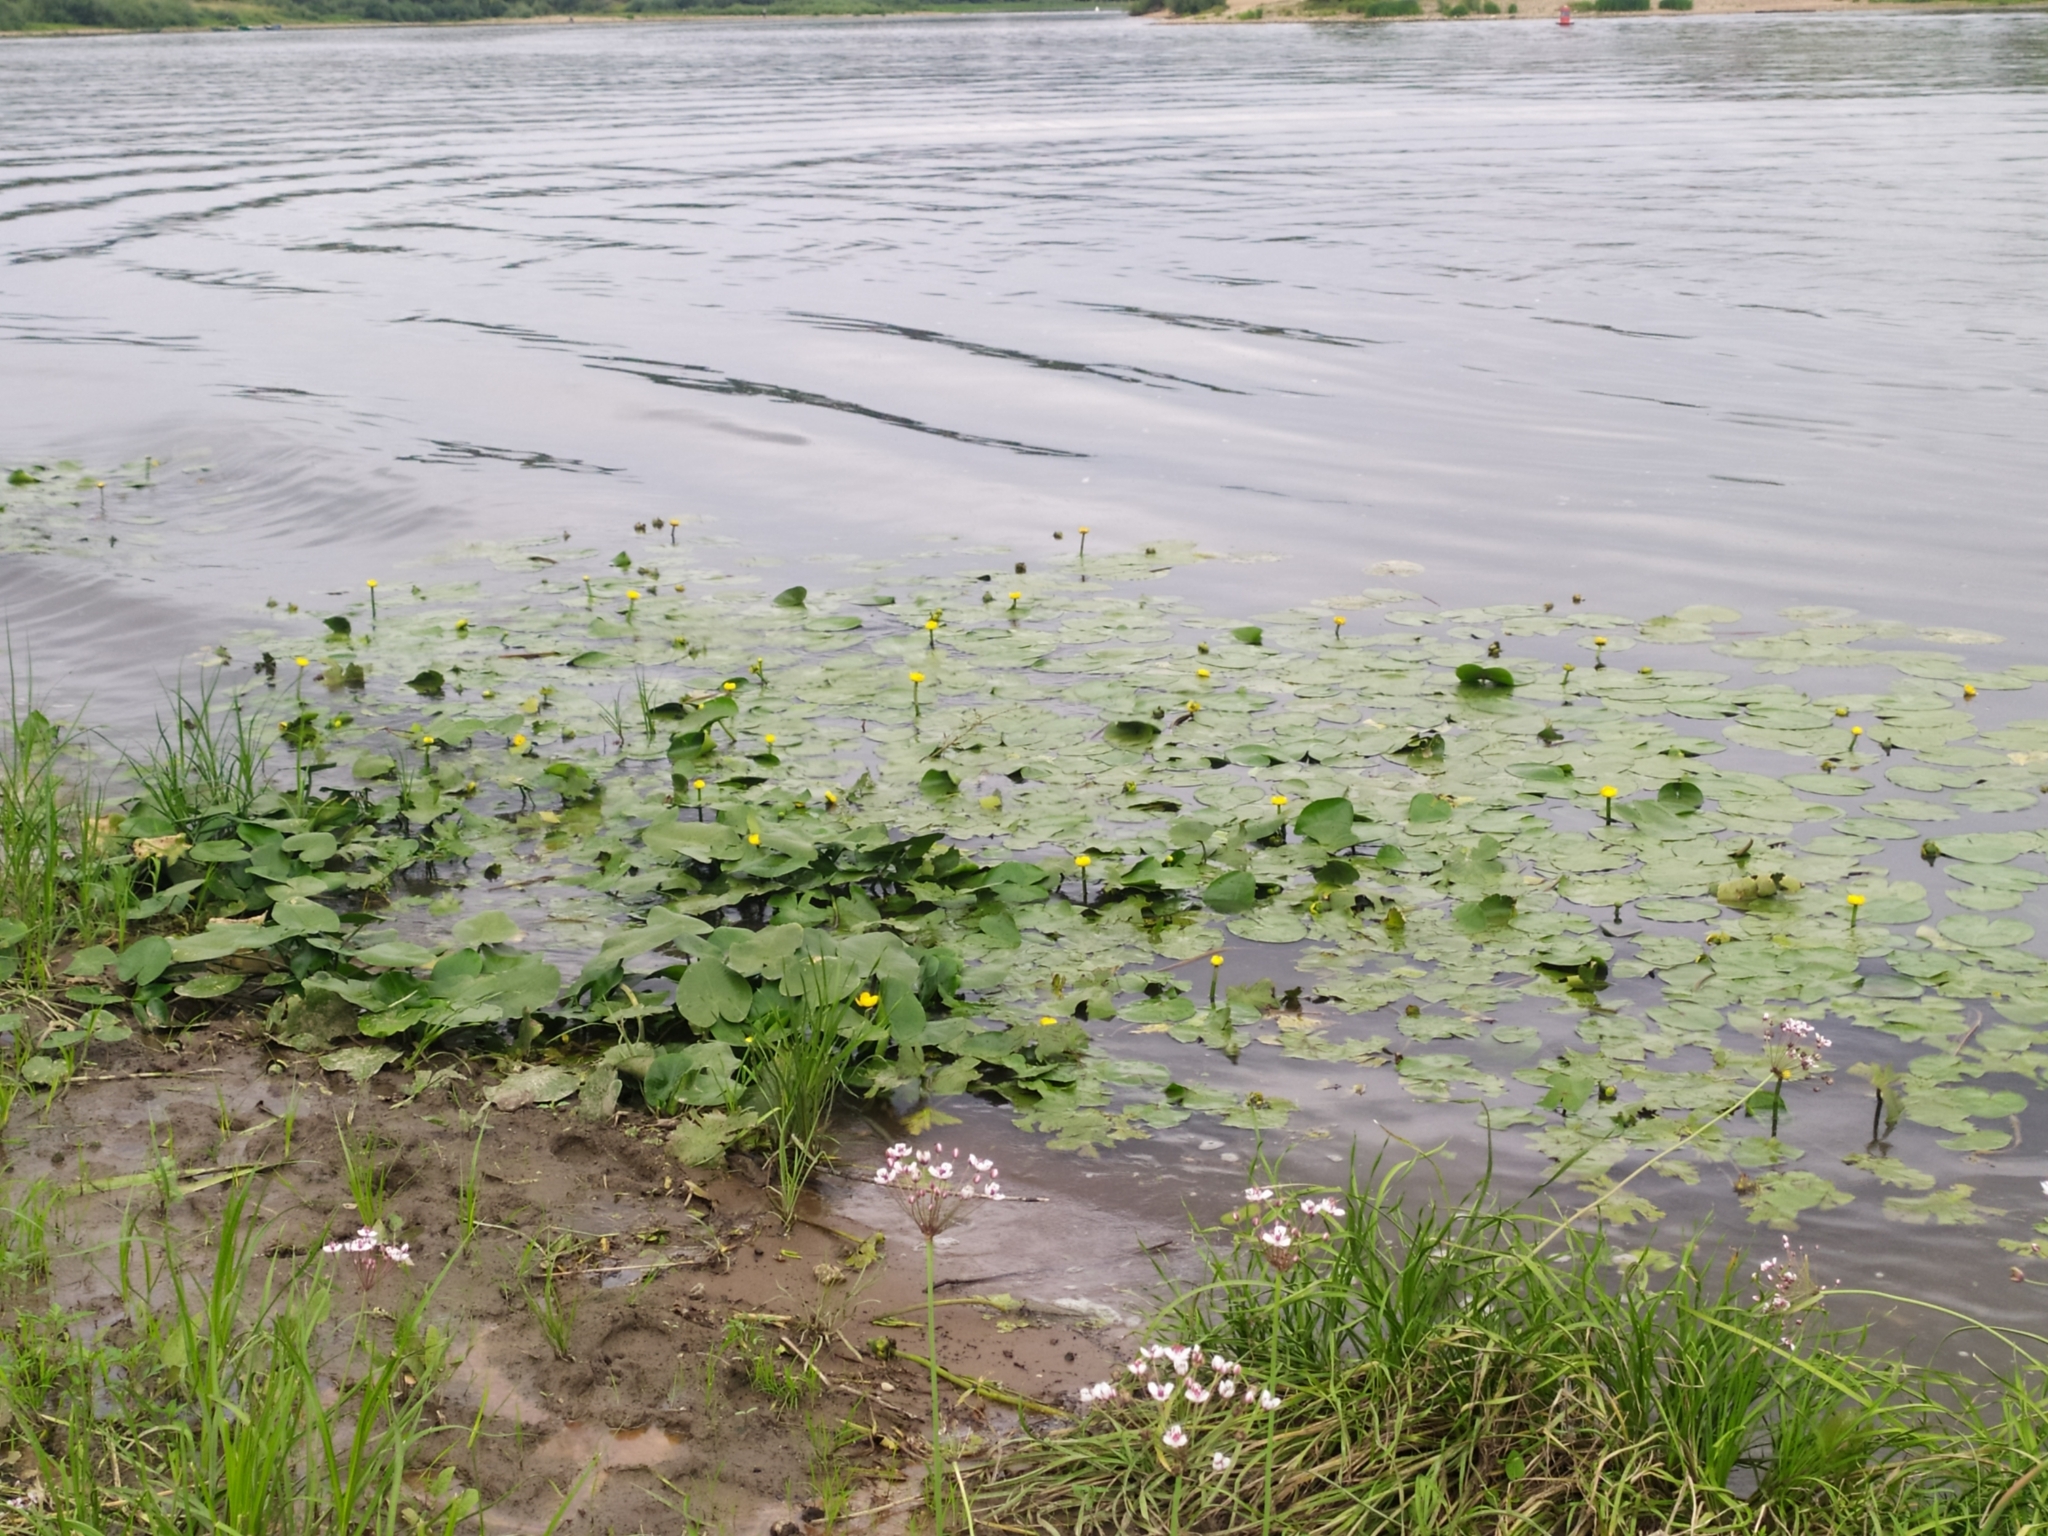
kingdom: Plantae
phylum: Tracheophyta
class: Magnoliopsida
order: Nymphaeales
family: Nymphaeaceae
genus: Nuphar
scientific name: Nuphar lutea
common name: Yellow water-lily
